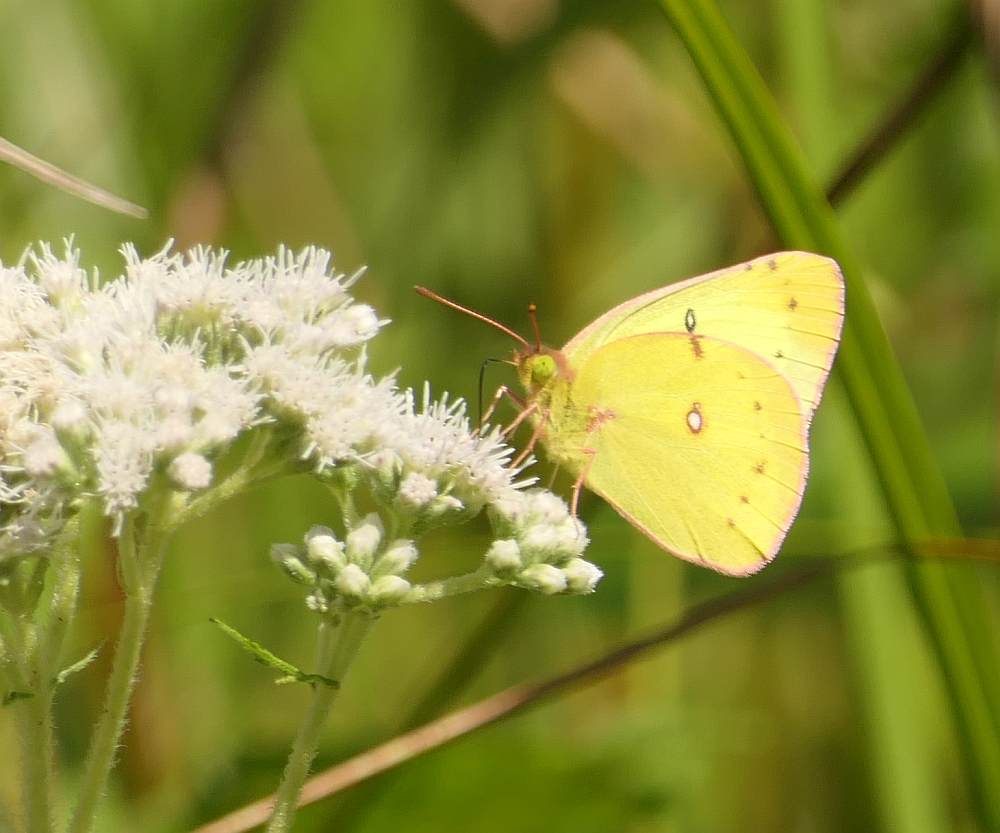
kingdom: Animalia
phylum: Arthropoda
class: Insecta
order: Lepidoptera
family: Pieridae
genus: Colias
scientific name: Colias philodice
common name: Clouded sulphur
